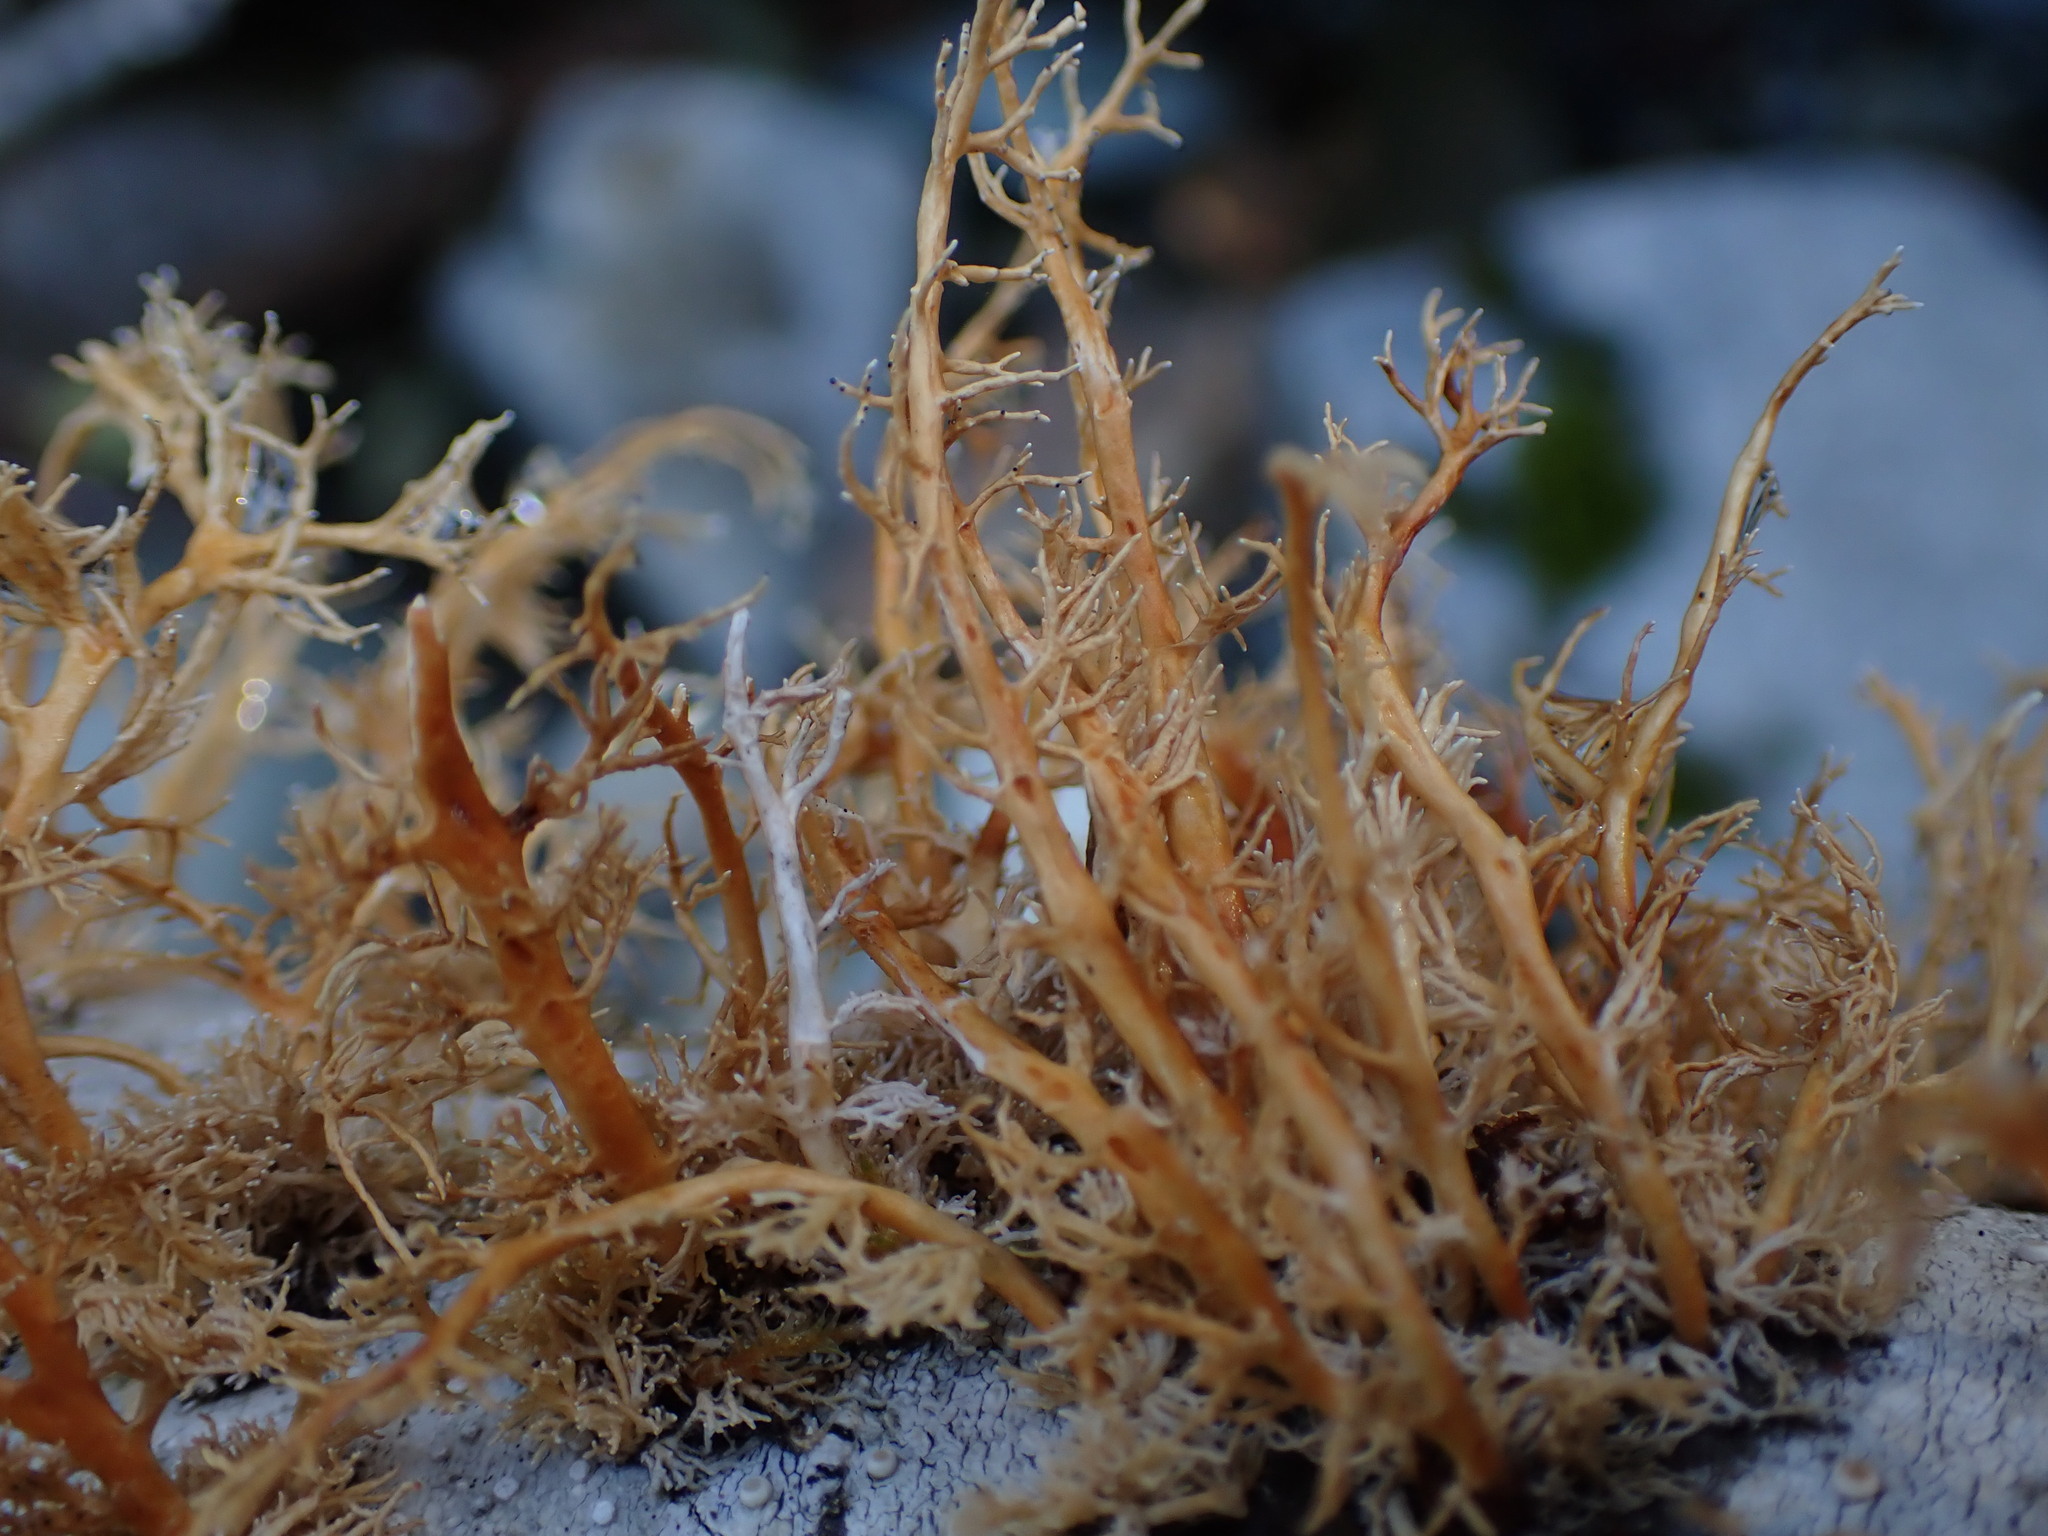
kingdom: Fungi
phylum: Ascomycota
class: Lecanoromycetes
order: Lecanorales
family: Sphaerophoraceae
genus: Sphaerophorus
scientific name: Sphaerophorus venerabilis
